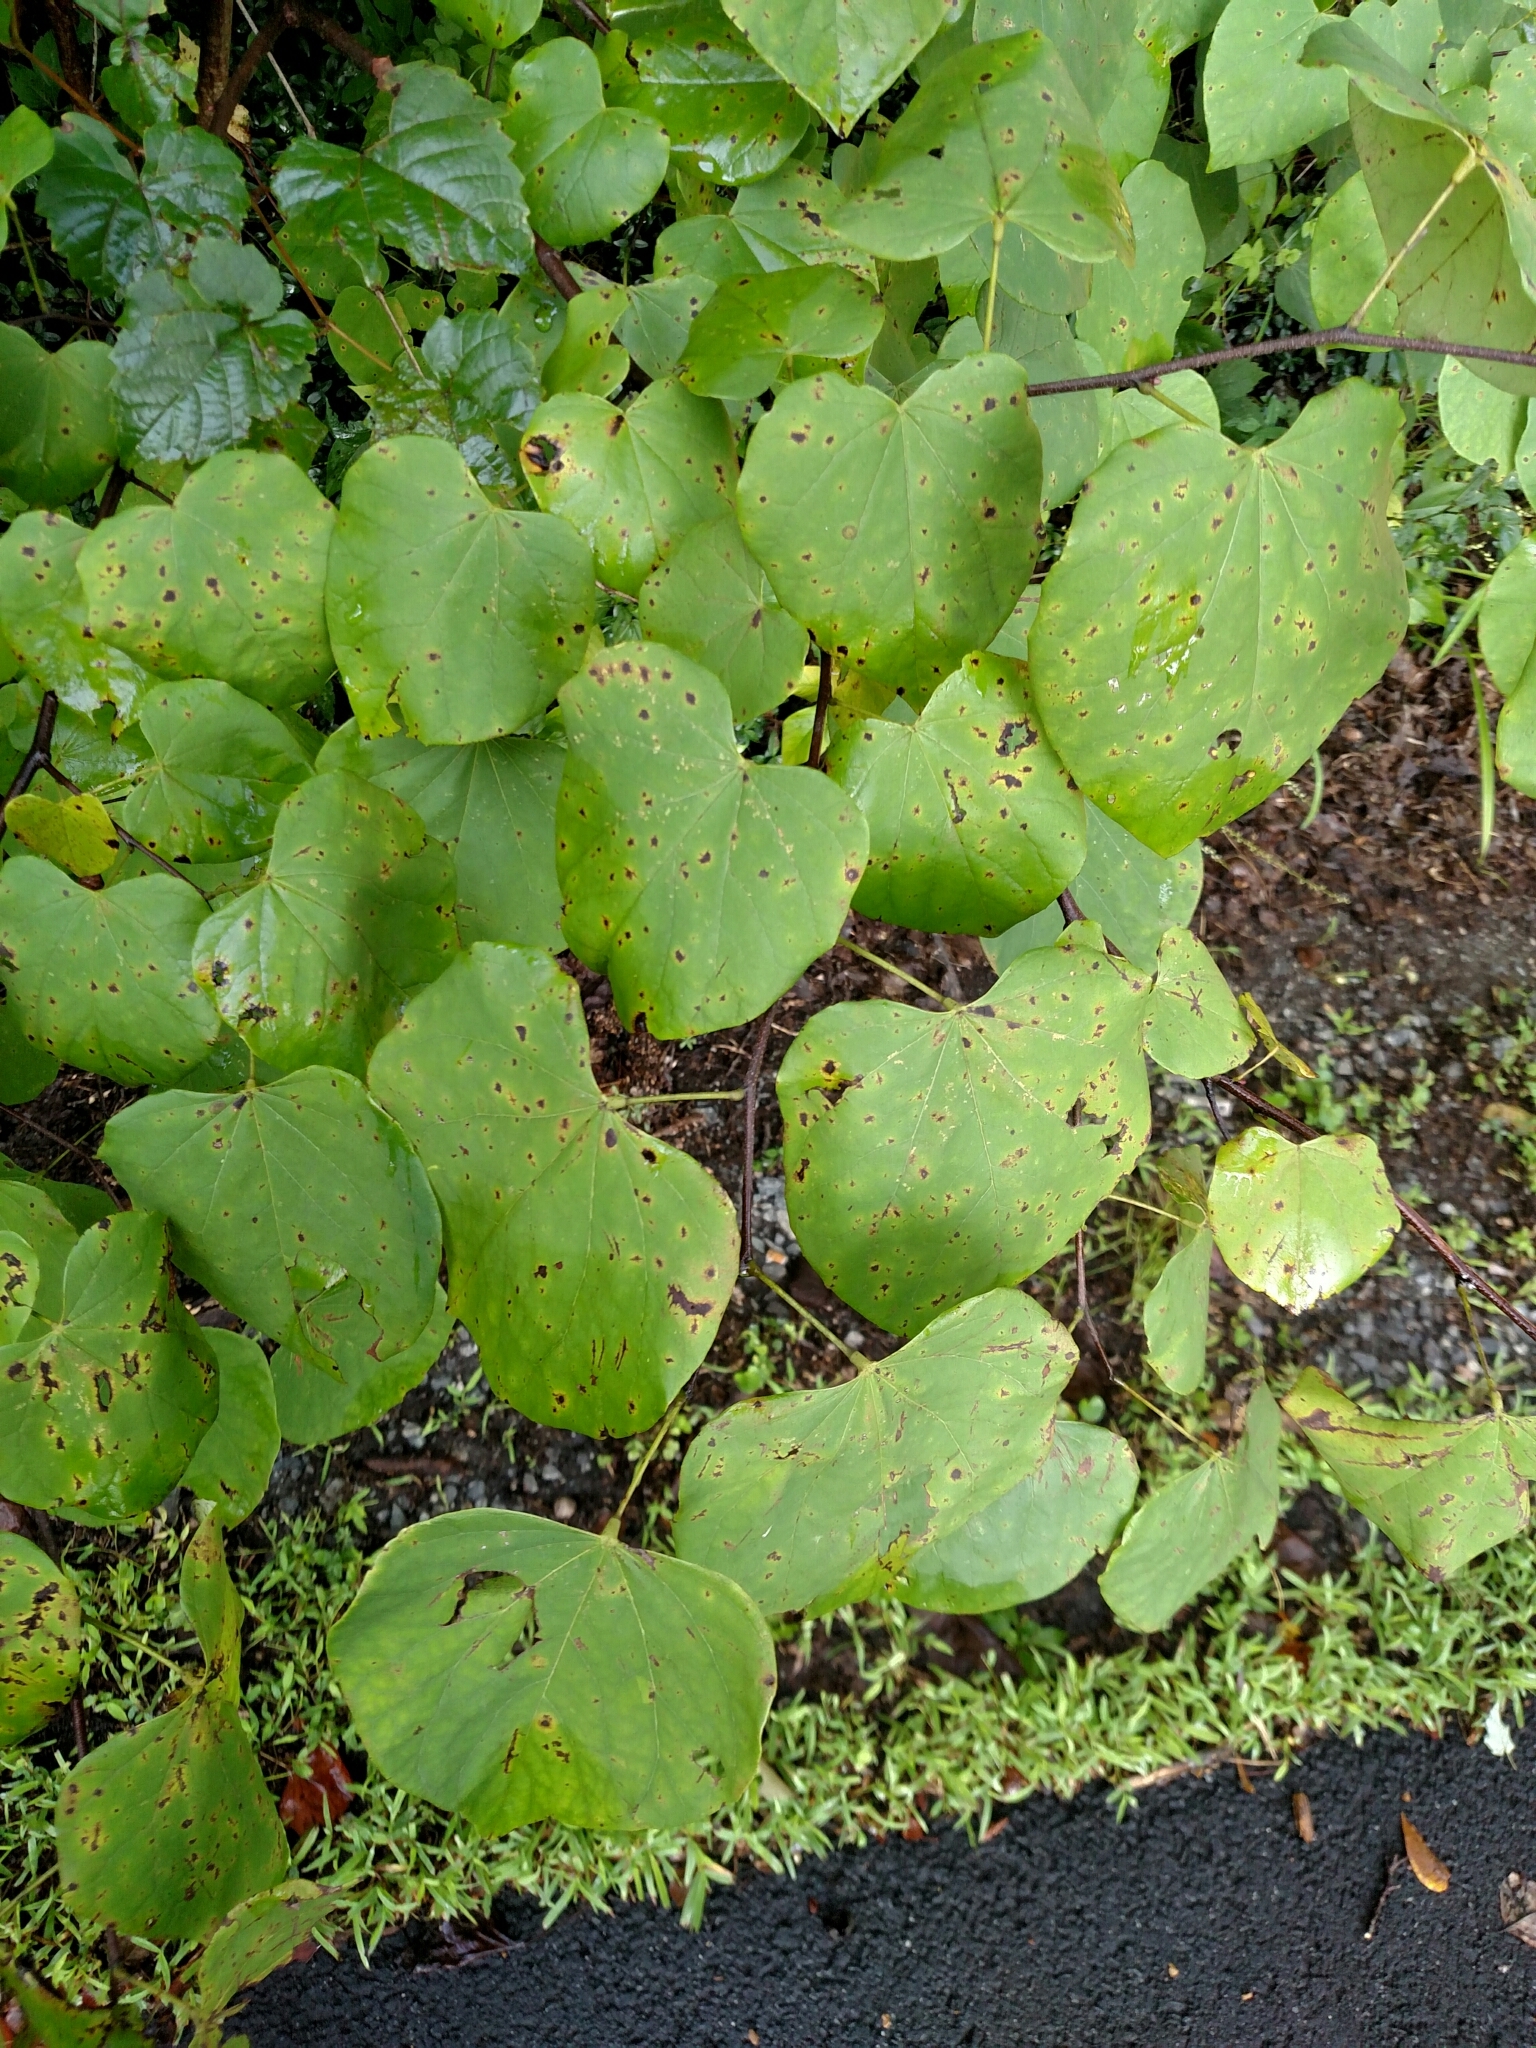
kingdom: Plantae
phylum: Tracheophyta
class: Magnoliopsida
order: Fabales
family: Fabaceae
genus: Cercis
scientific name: Cercis canadensis
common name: Eastern redbud
